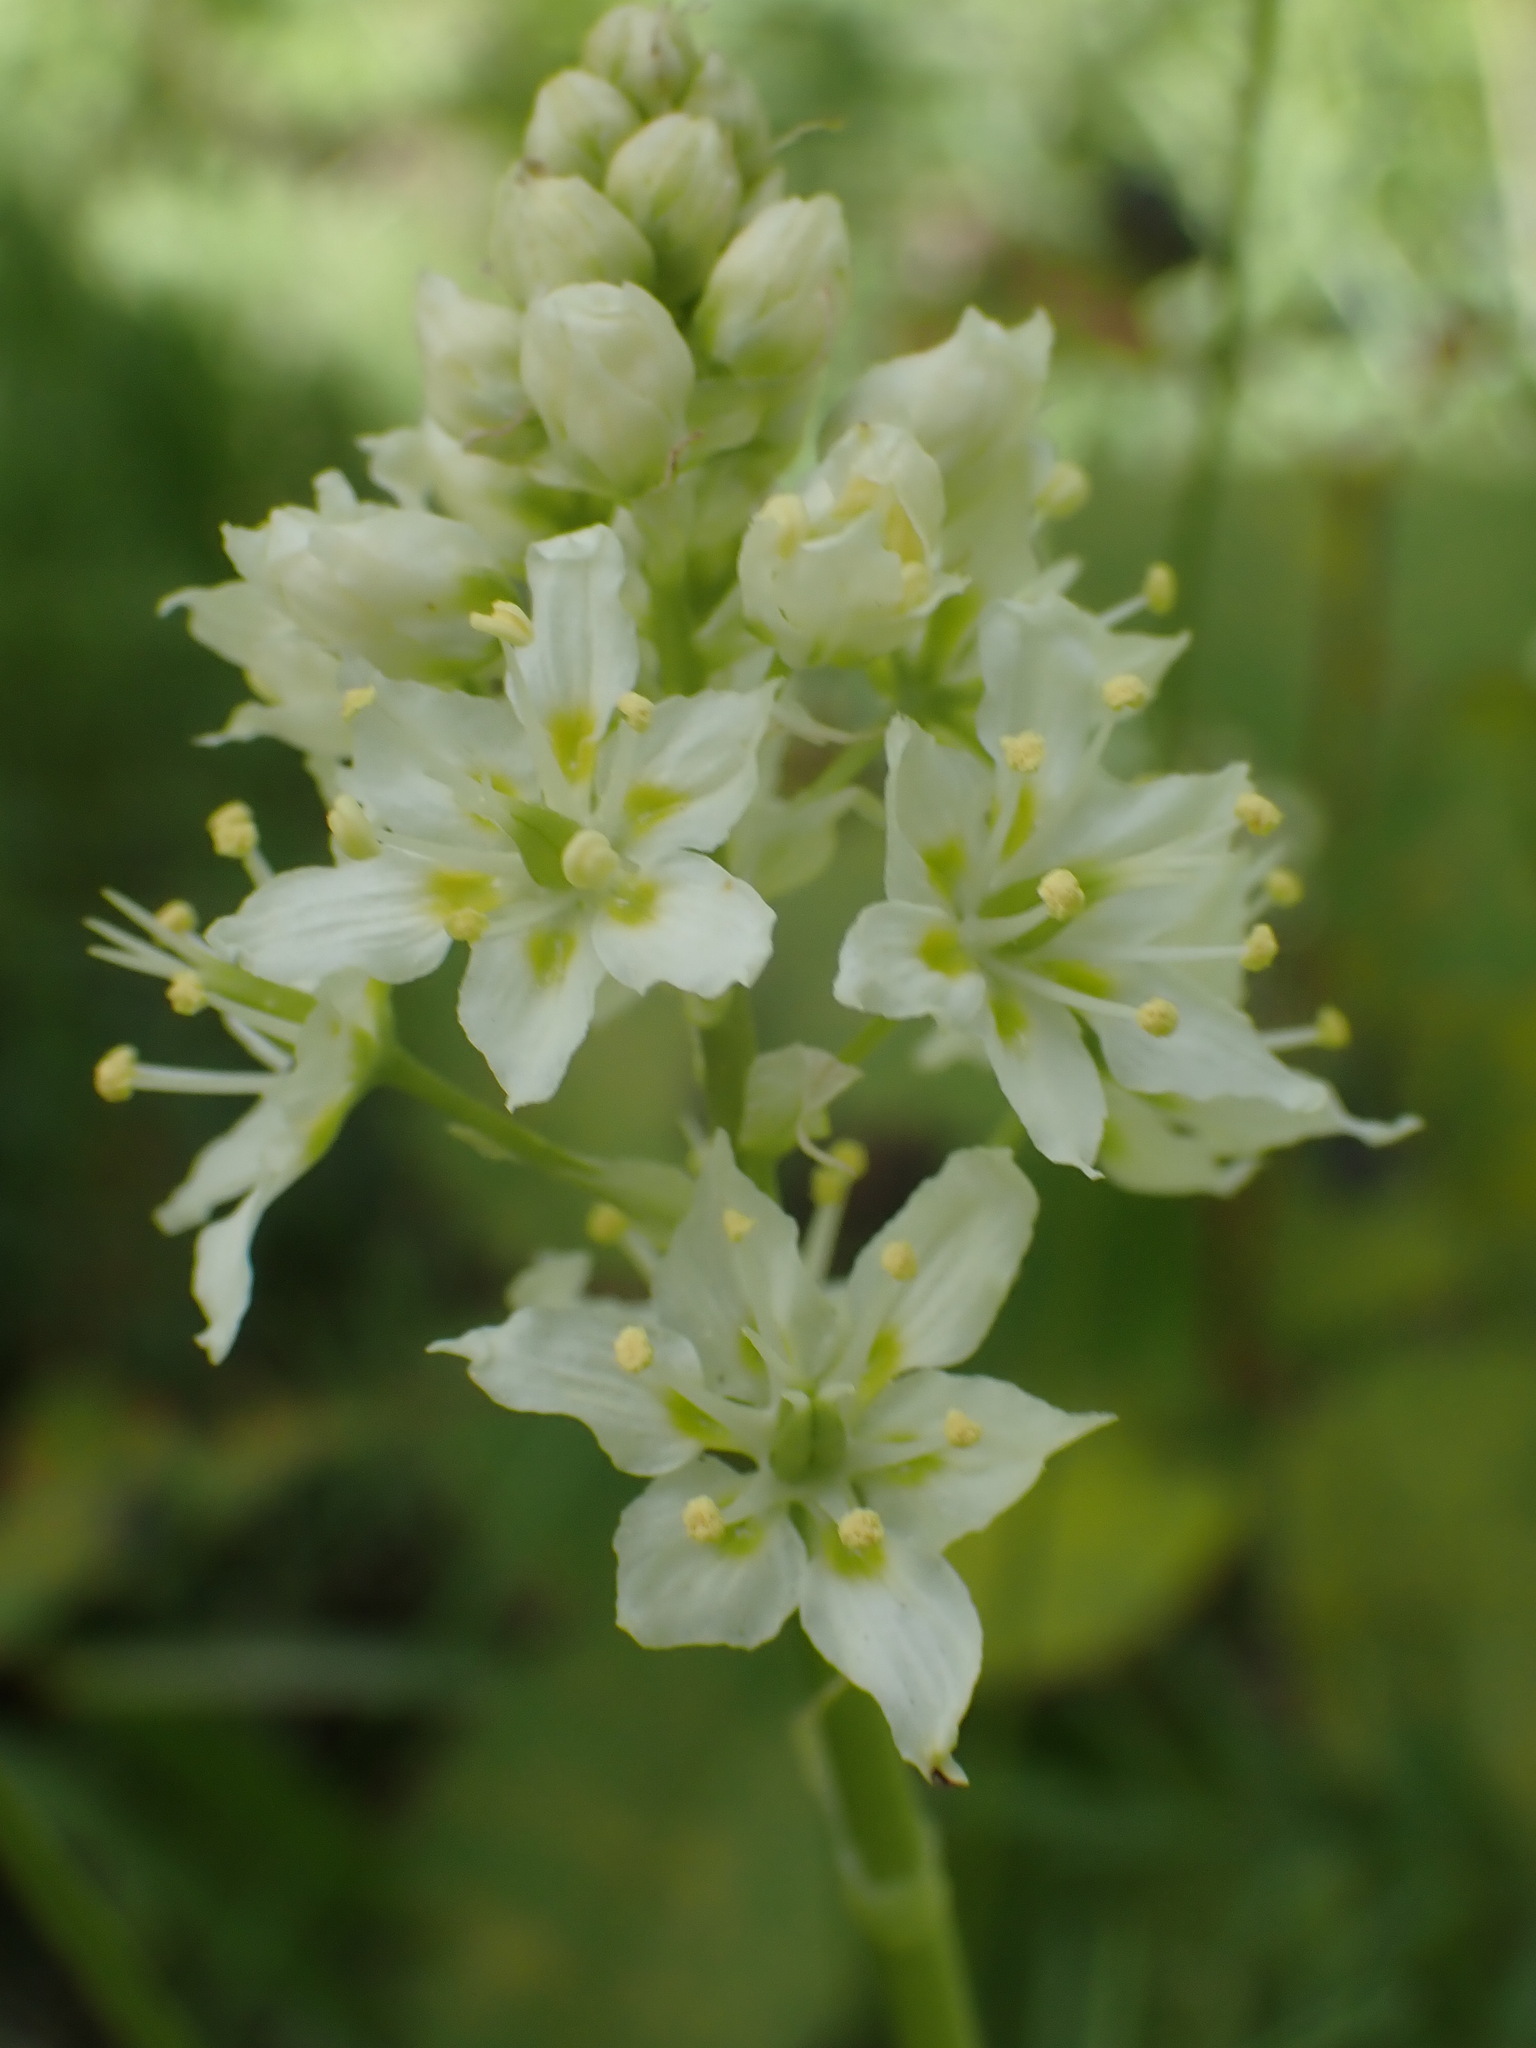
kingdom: Plantae
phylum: Tracheophyta
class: Liliopsida
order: Liliales
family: Melanthiaceae
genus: Toxicoscordion
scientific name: Toxicoscordion venenosum
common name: Meadow death camas
